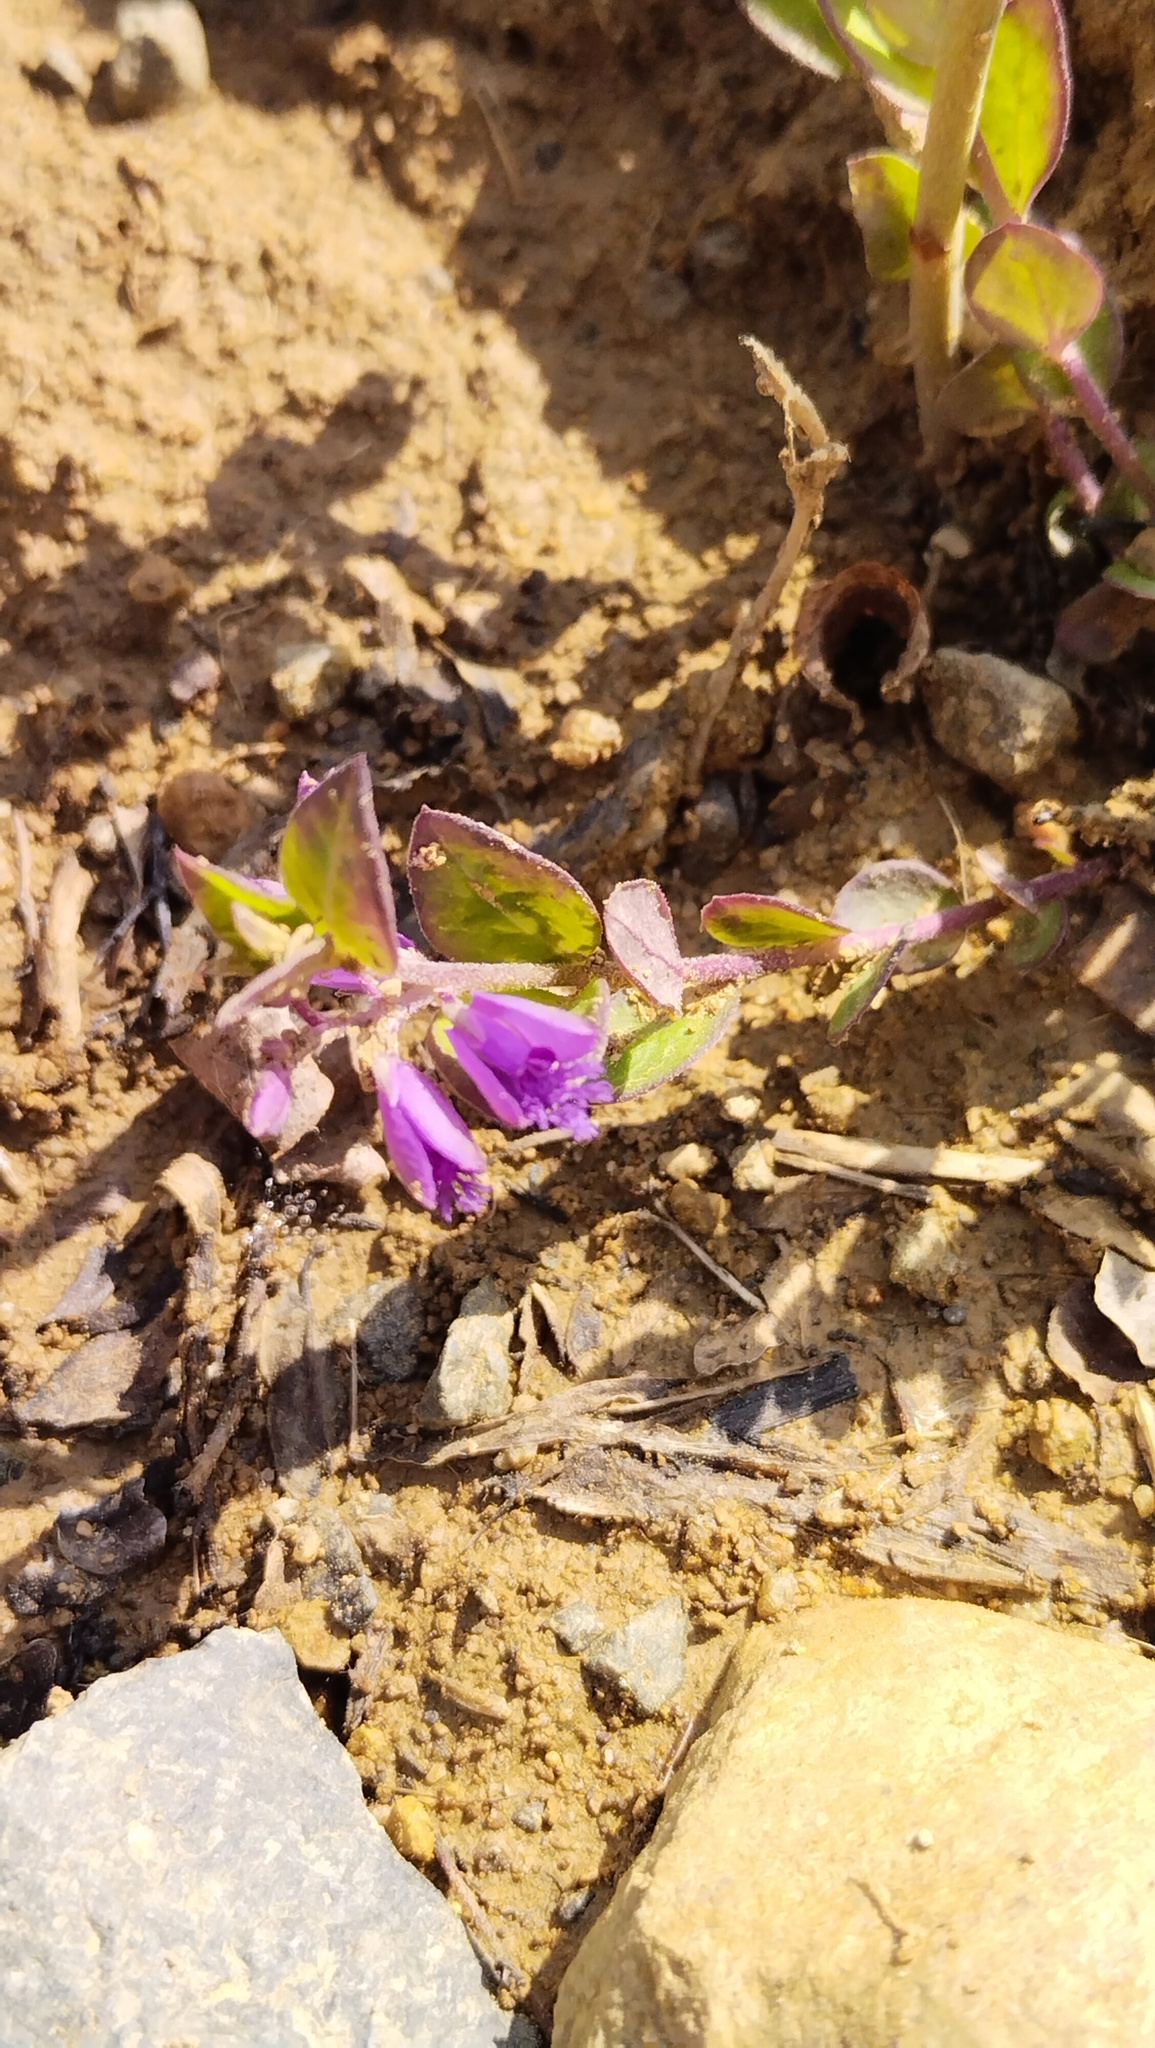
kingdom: Plantae
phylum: Tracheophyta
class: Magnoliopsida
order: Fabales
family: Polygalaceae
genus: Polygala
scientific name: Polygala japonica
